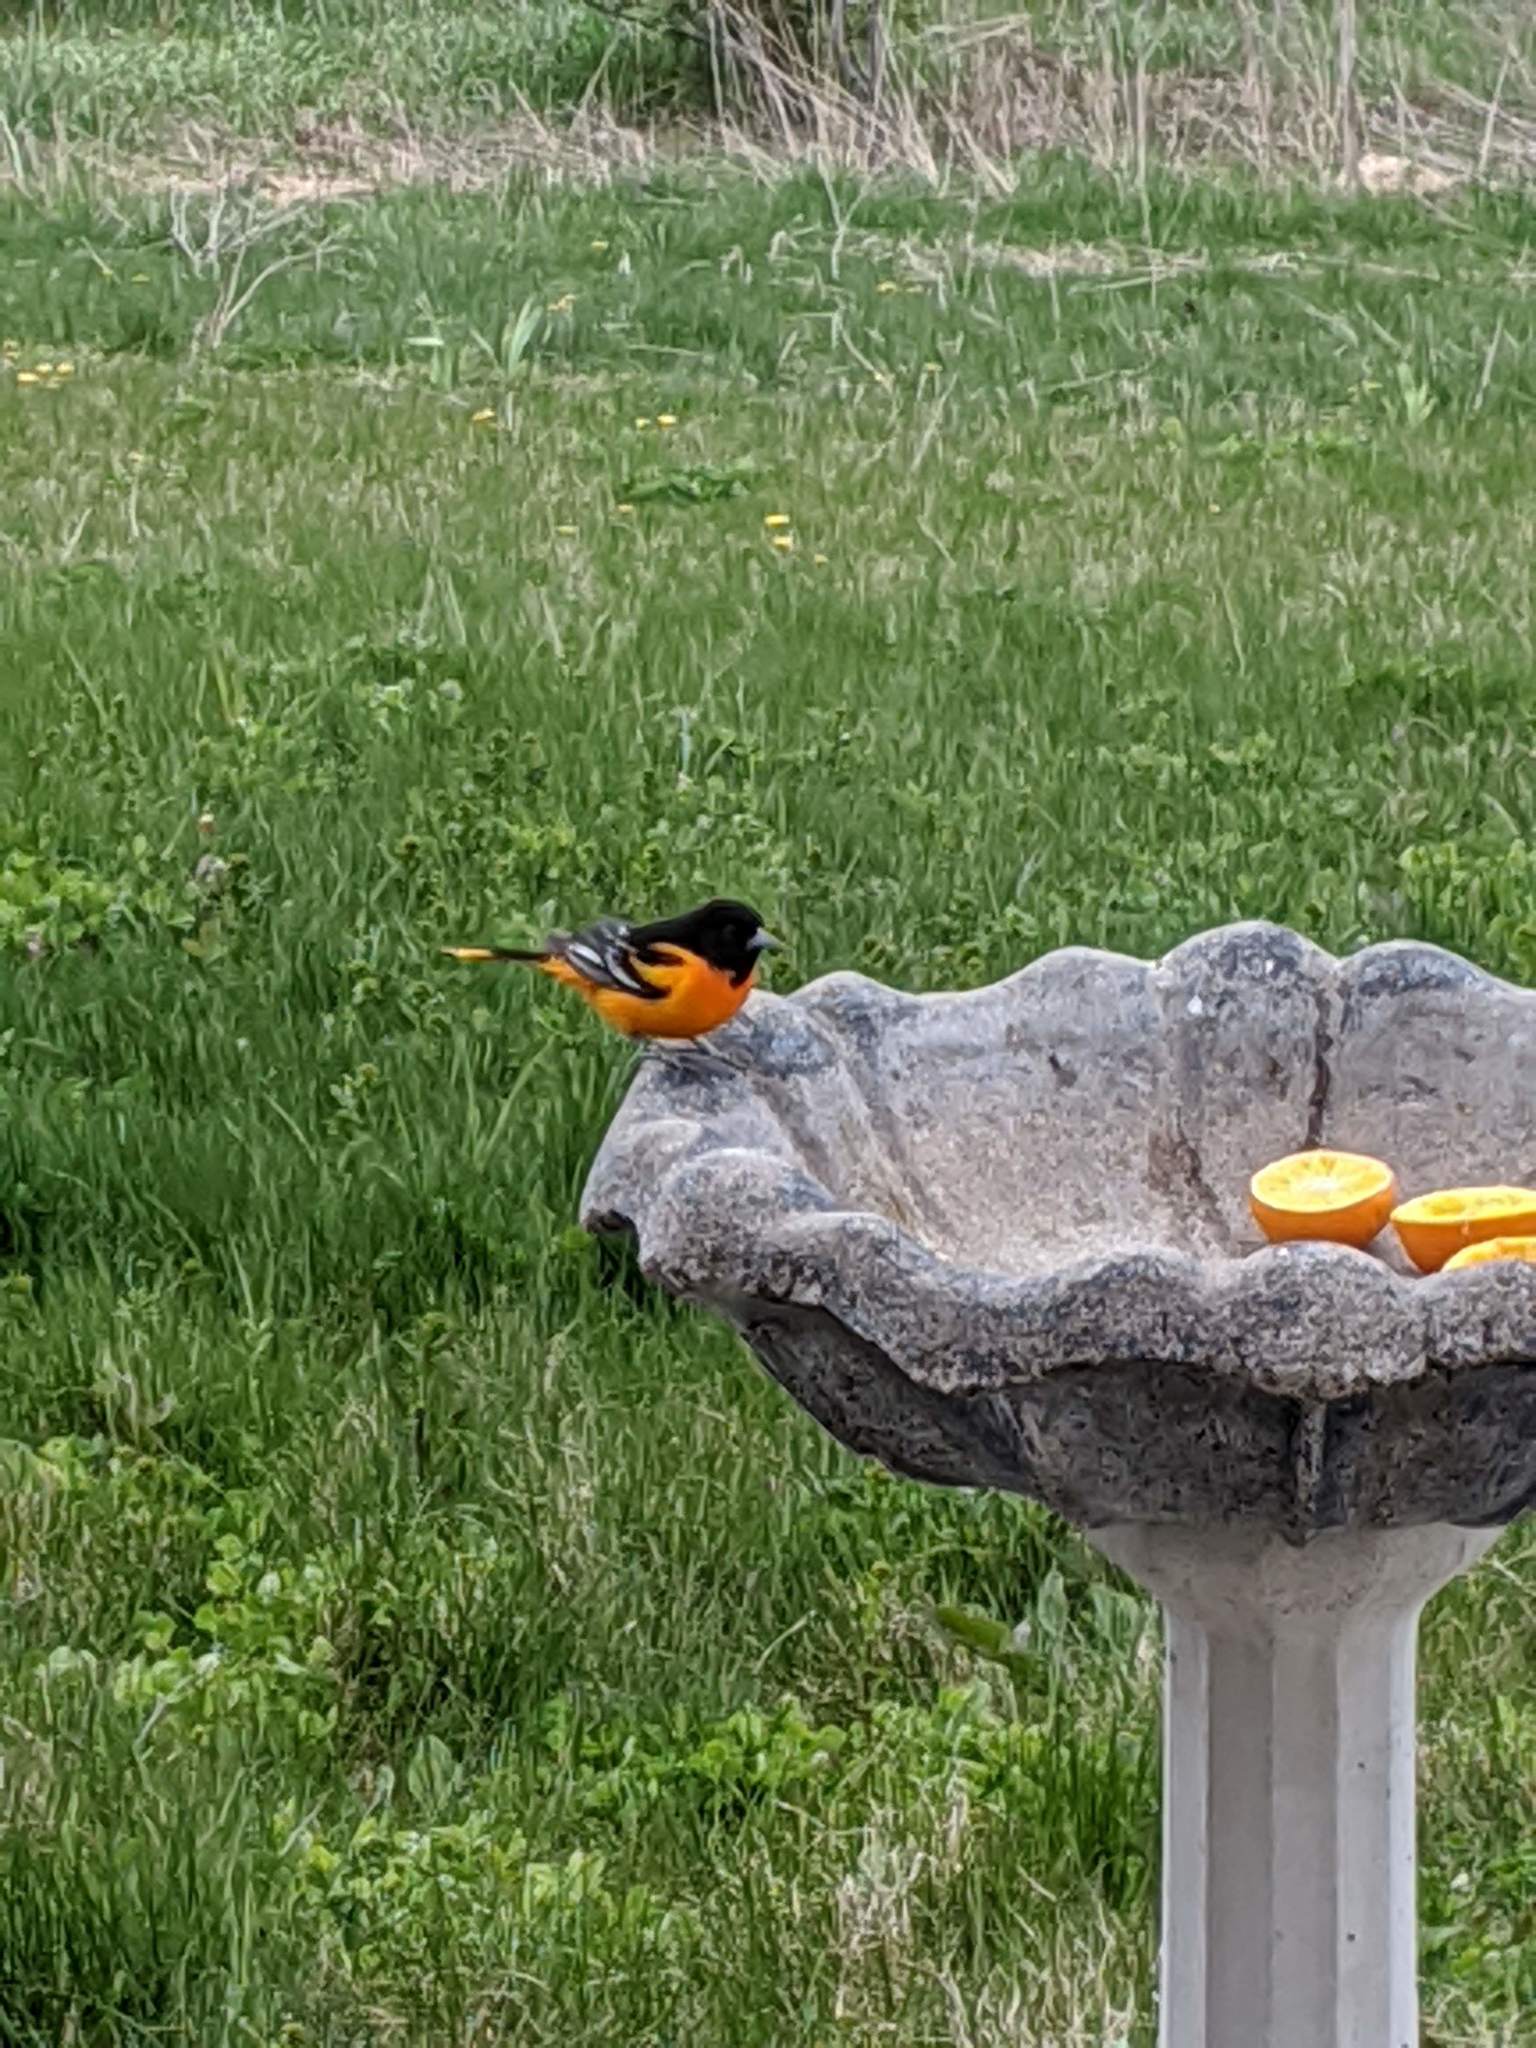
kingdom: Animalia
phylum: Chordata
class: Aves
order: Passeriformes
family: Icteridae
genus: Icterus
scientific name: Icterus galbula
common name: Baltimore oriole
